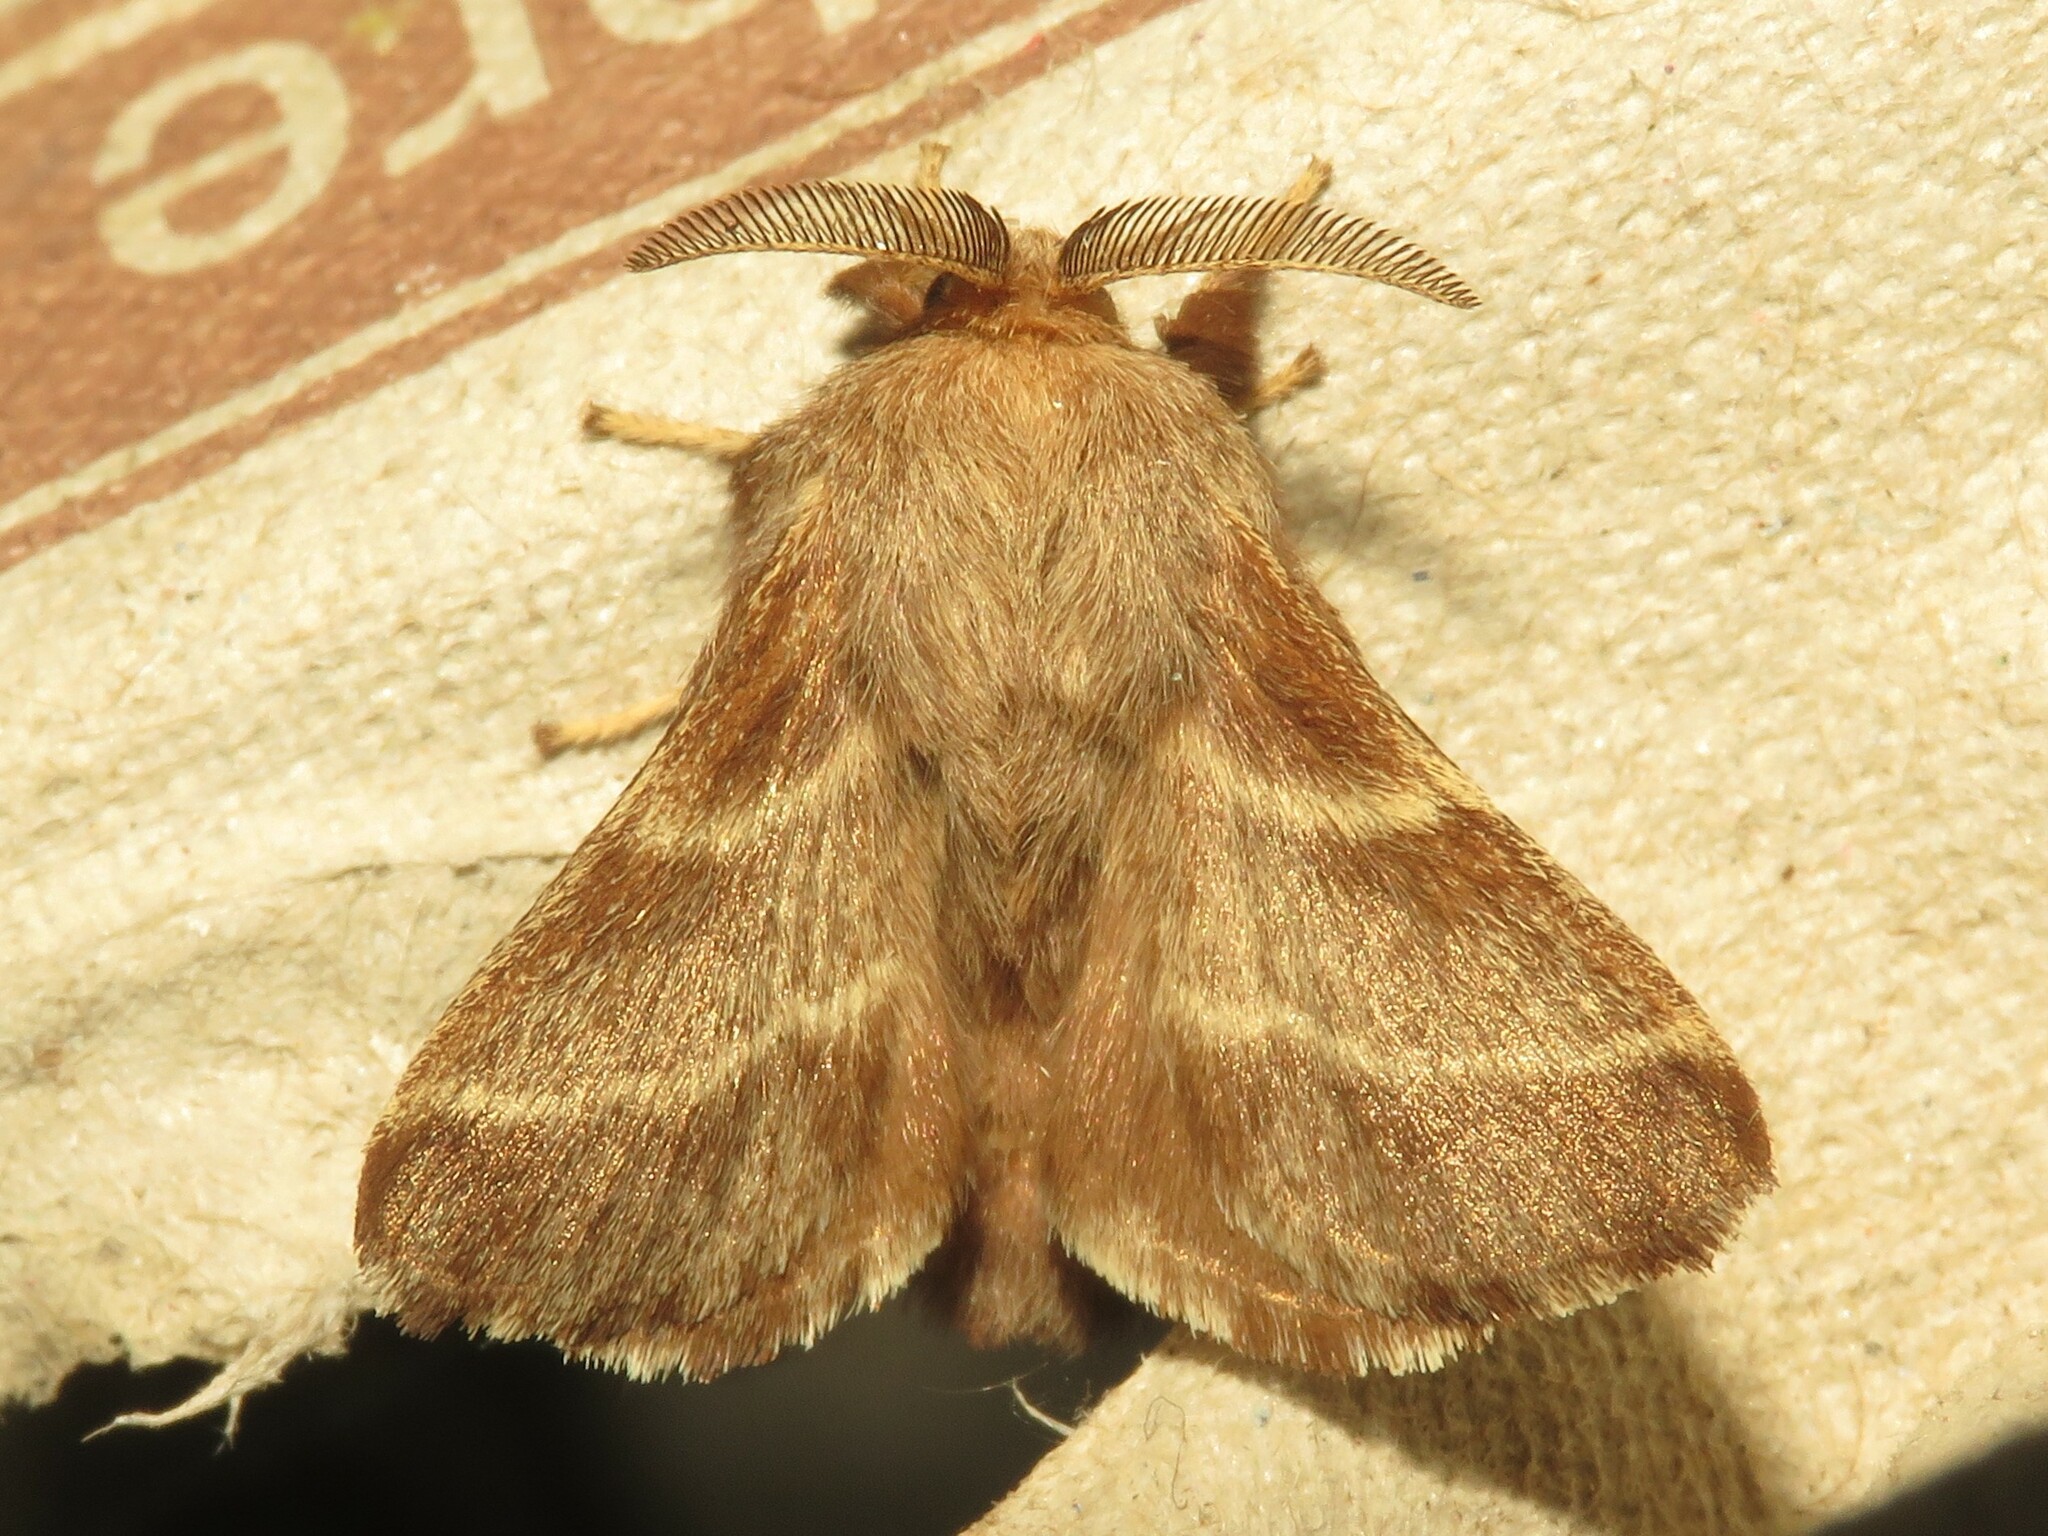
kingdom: Animalia
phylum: Arthropoda
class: Insecta
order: Lepidoptera
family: Lasiocampidae
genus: Malacosoma
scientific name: Malacosoma americana
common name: Eastern tent caterpillar moth
